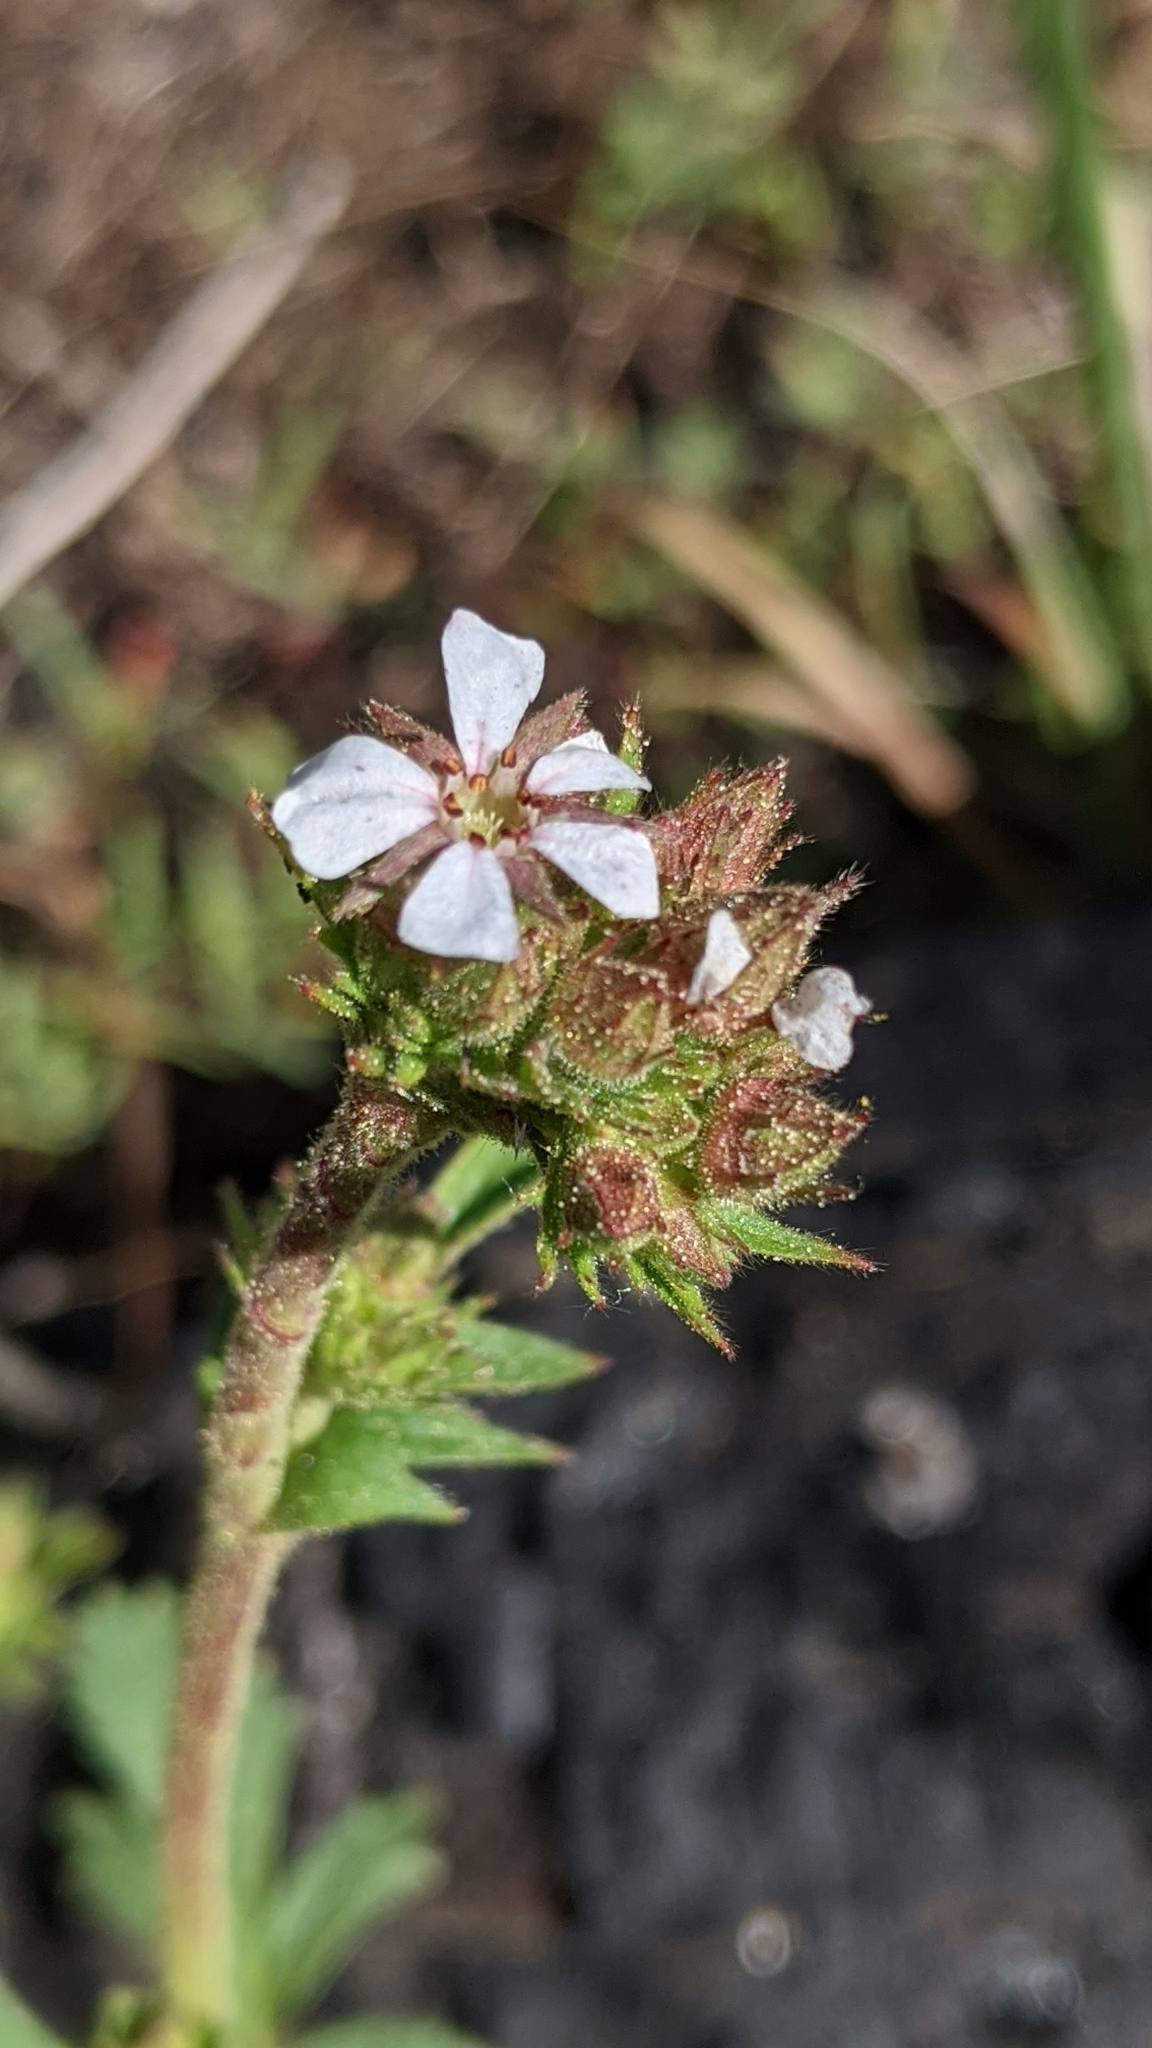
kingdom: Plantae
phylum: Tracheophyta
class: Magnoliopsida
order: Rosales
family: Rosaceae
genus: Potentilla
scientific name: Potentilla douglasii
